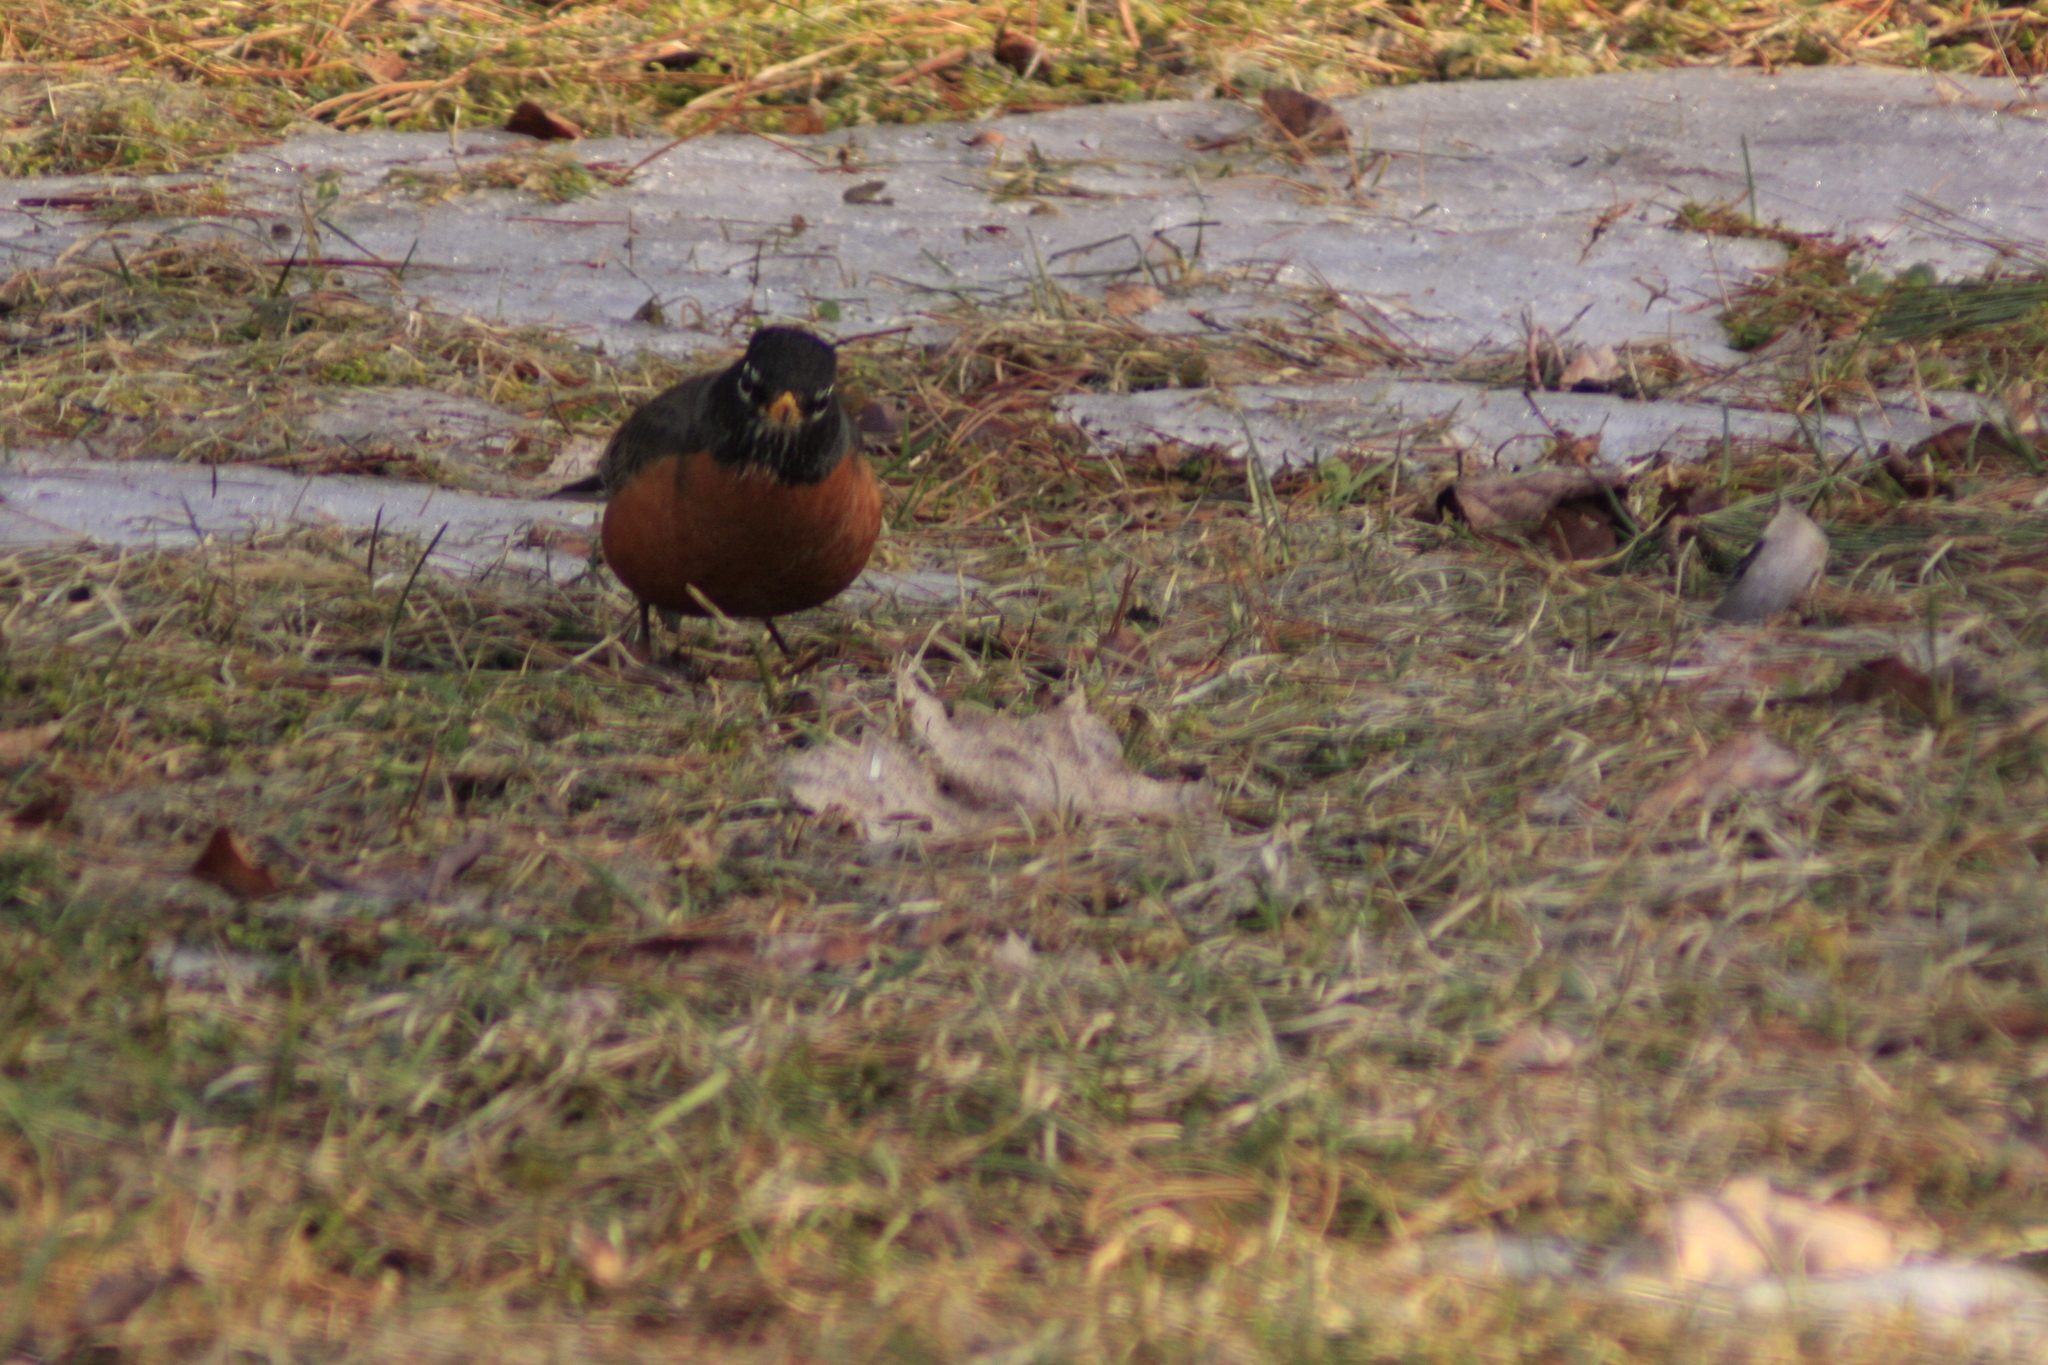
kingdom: Animalia
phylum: Chordata
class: Aves
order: Passeriformes
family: Turdidae
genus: Turdus
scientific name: Turdus migratorius
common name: American robin
